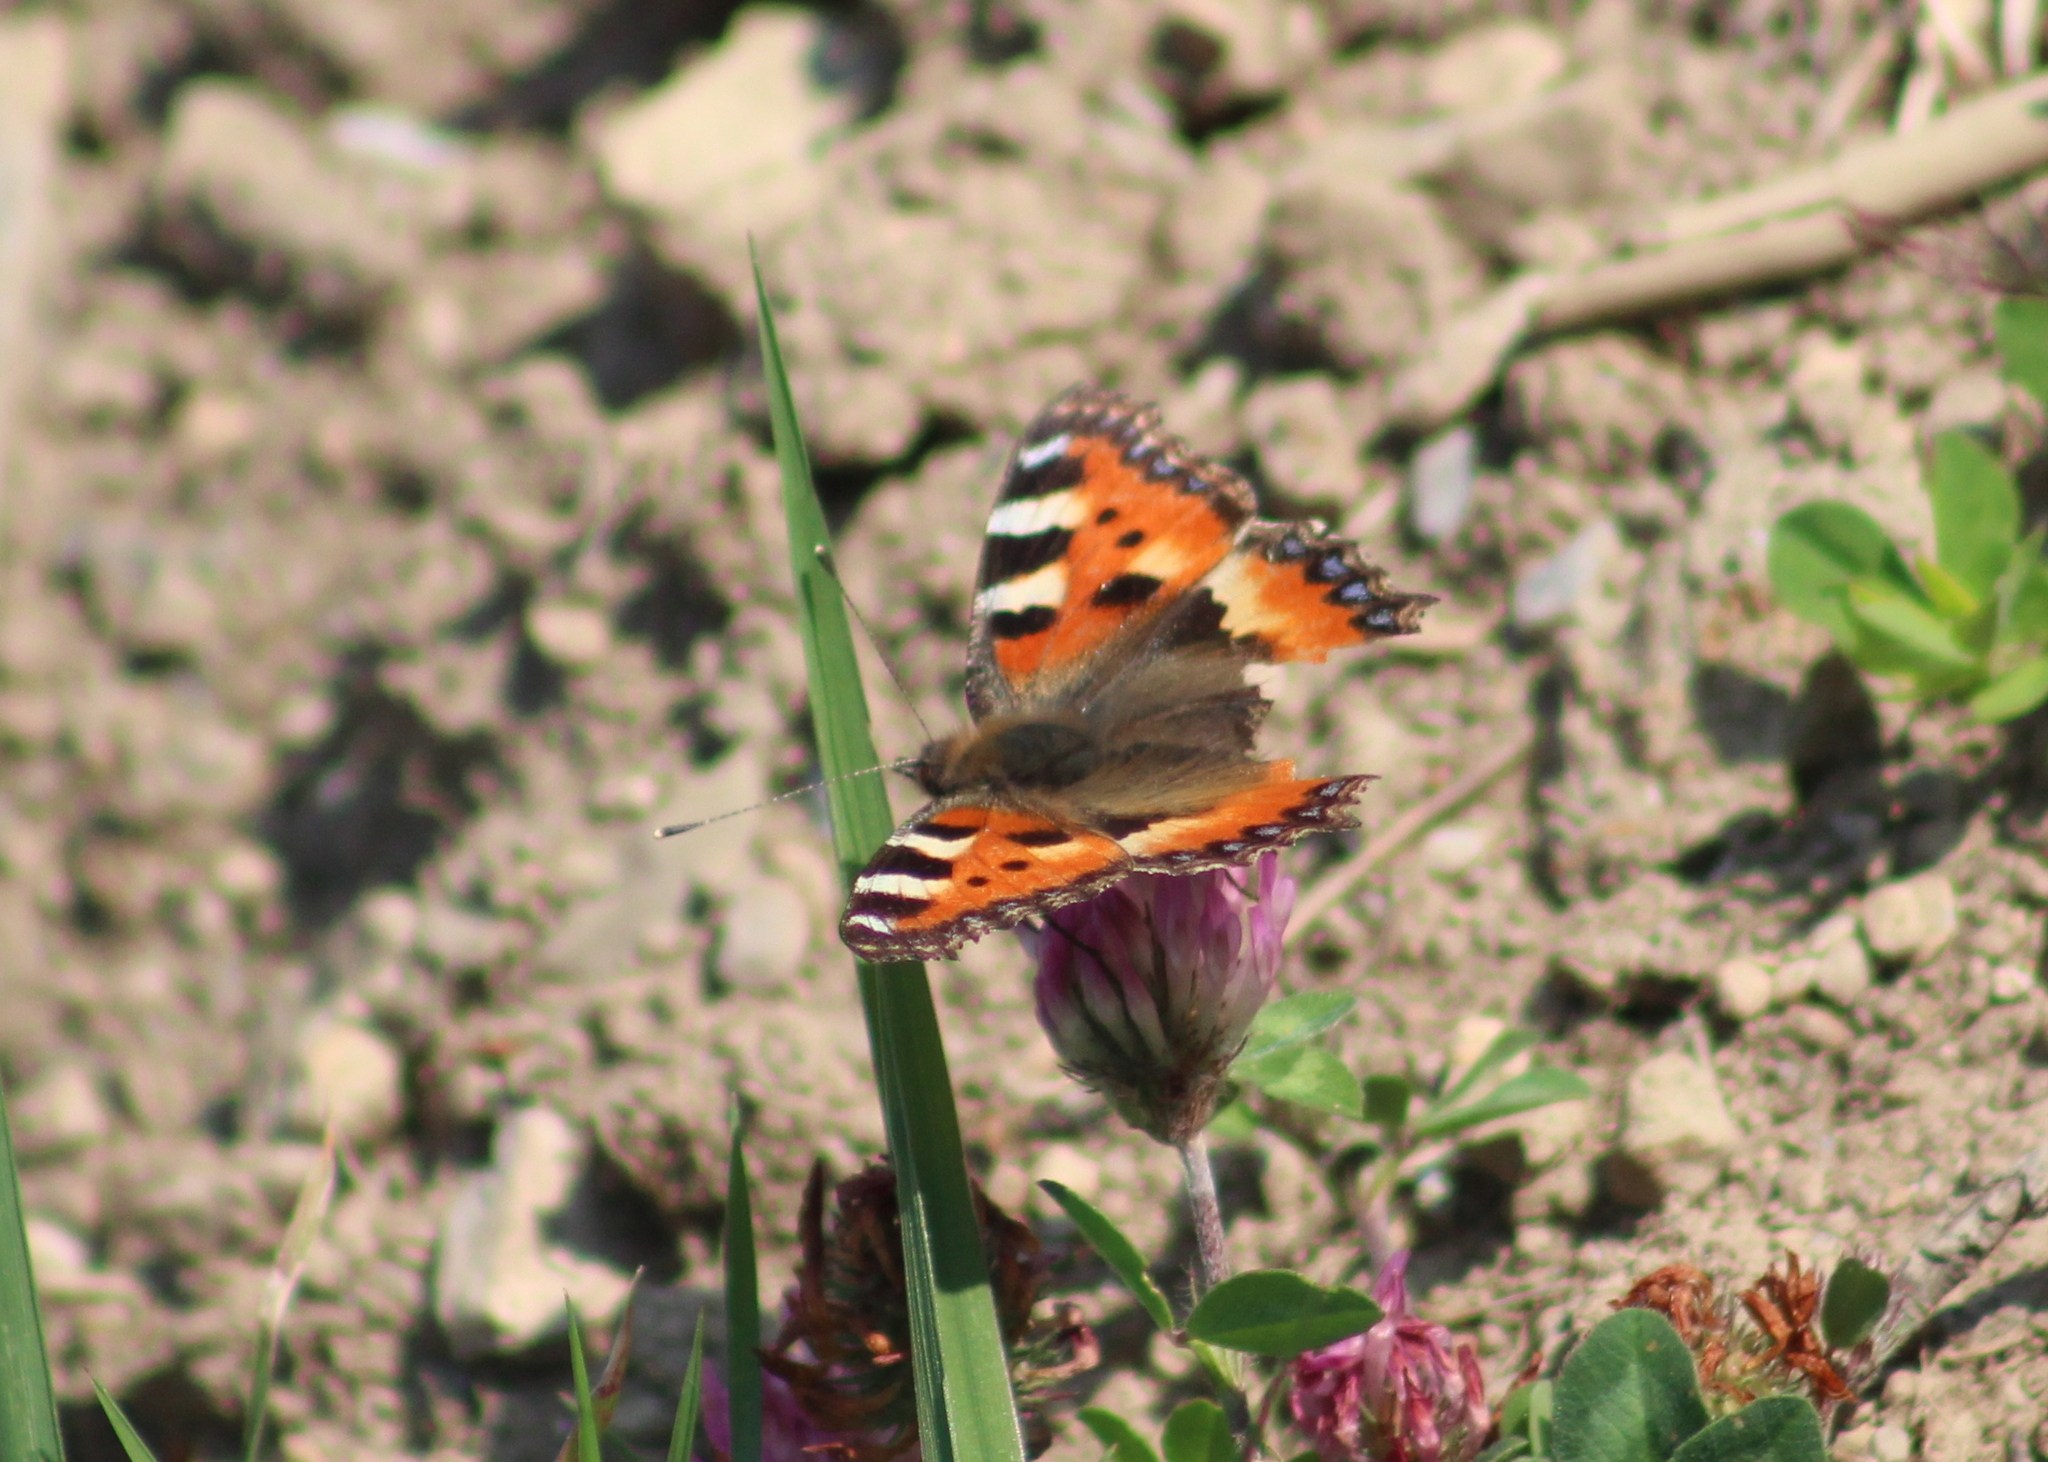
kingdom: Animalia
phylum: Arthropoda
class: Insecta
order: Lepidoptera
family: Nymphalidae
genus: Aglais
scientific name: Aglais urticae
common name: Small tortoiseshell
